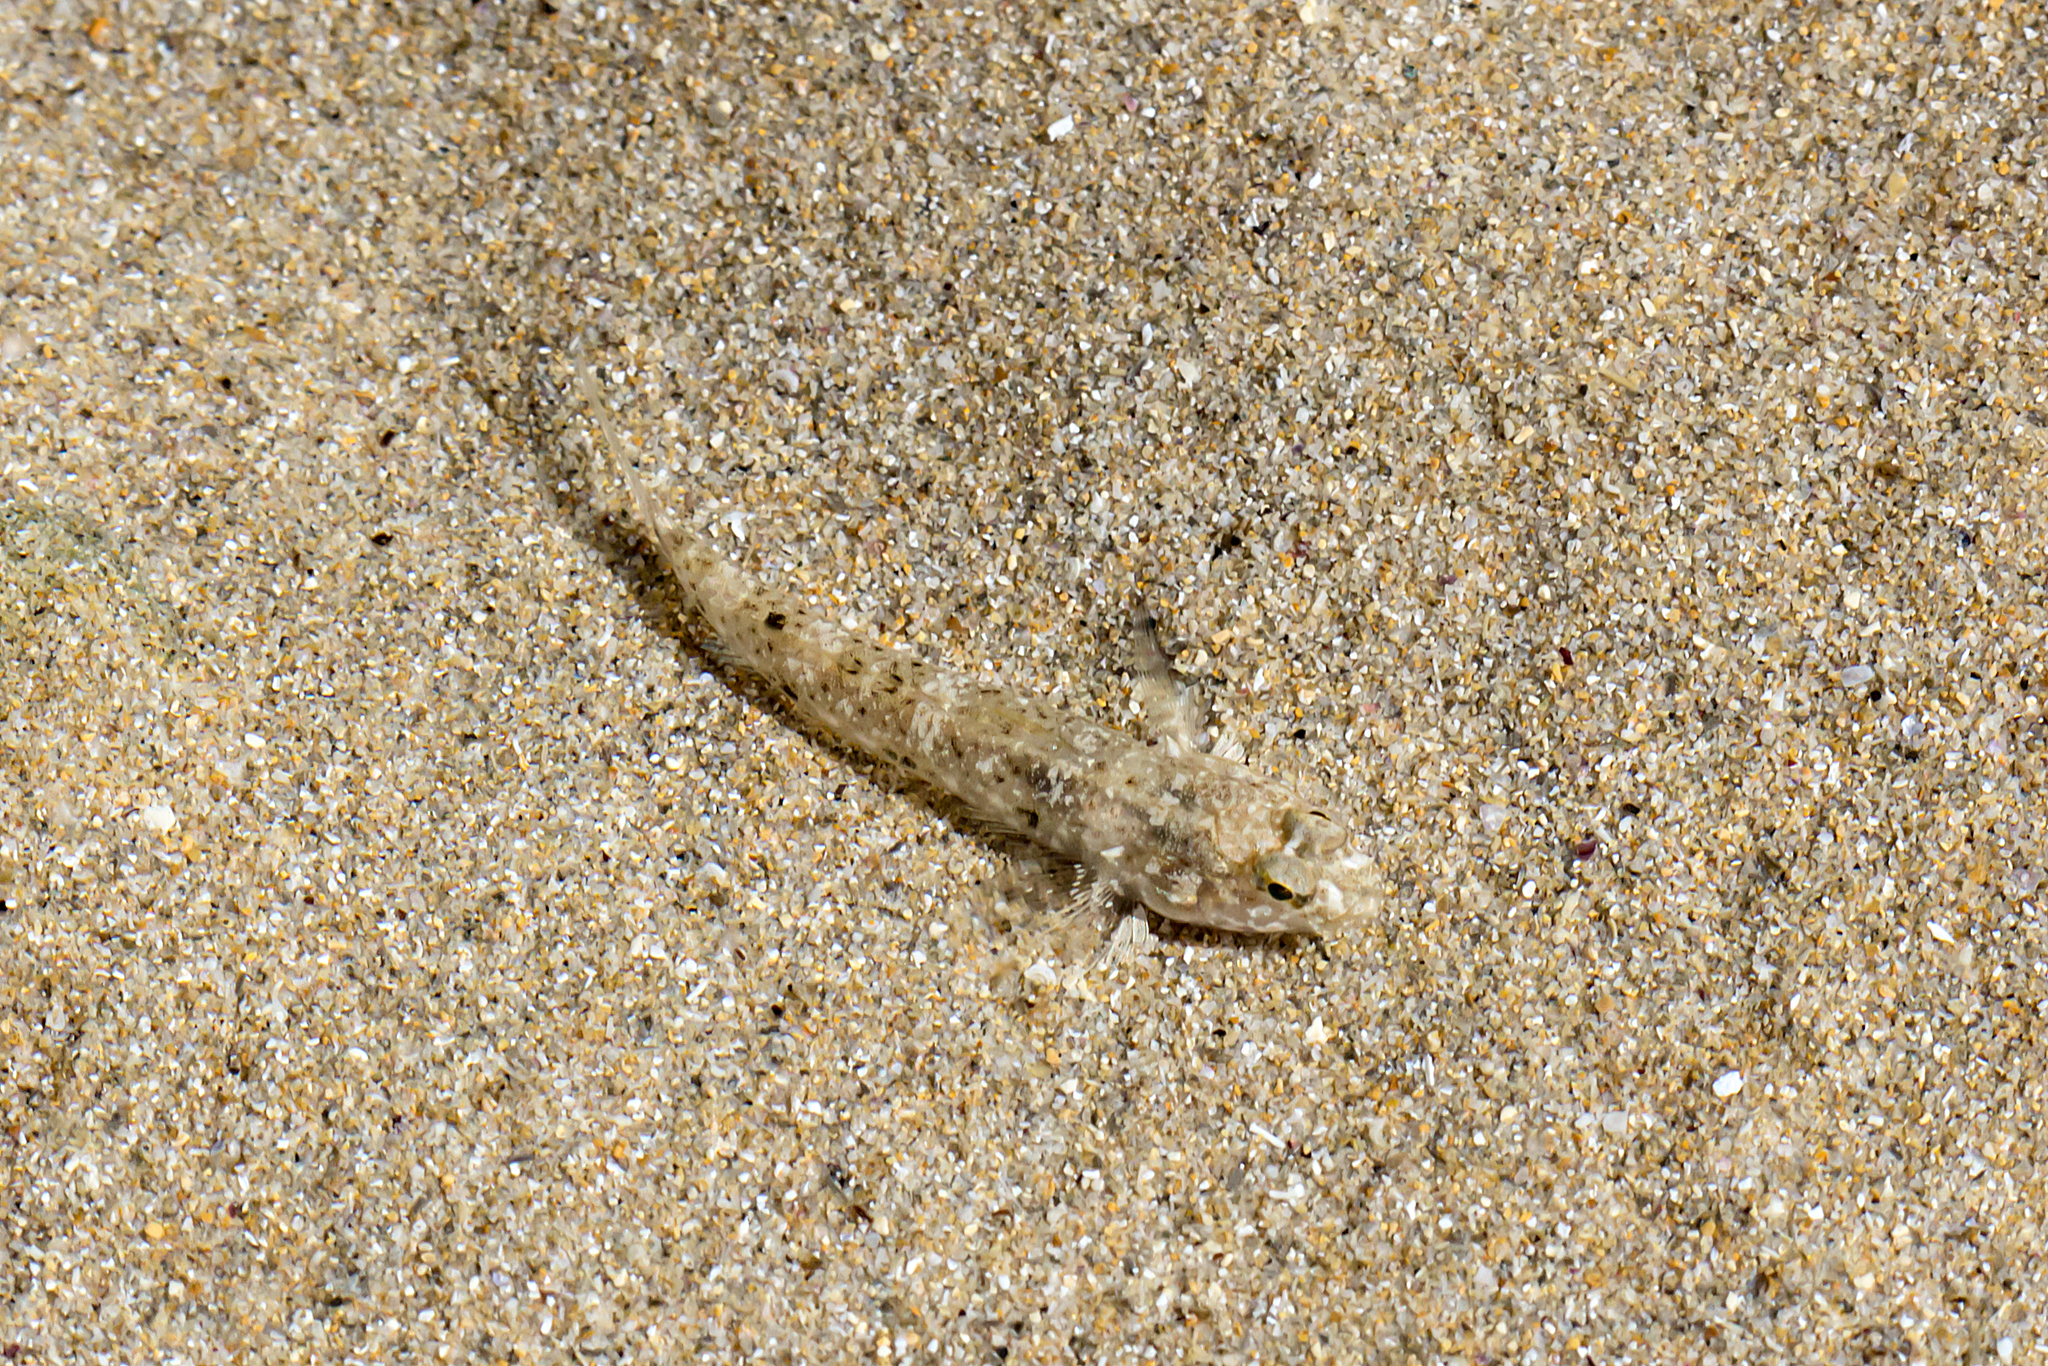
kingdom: Animalia
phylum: Chordata
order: Perciformes
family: Gobiidae
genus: Favonigobius
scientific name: Favonigobius lateralis
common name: Long-finned goby
